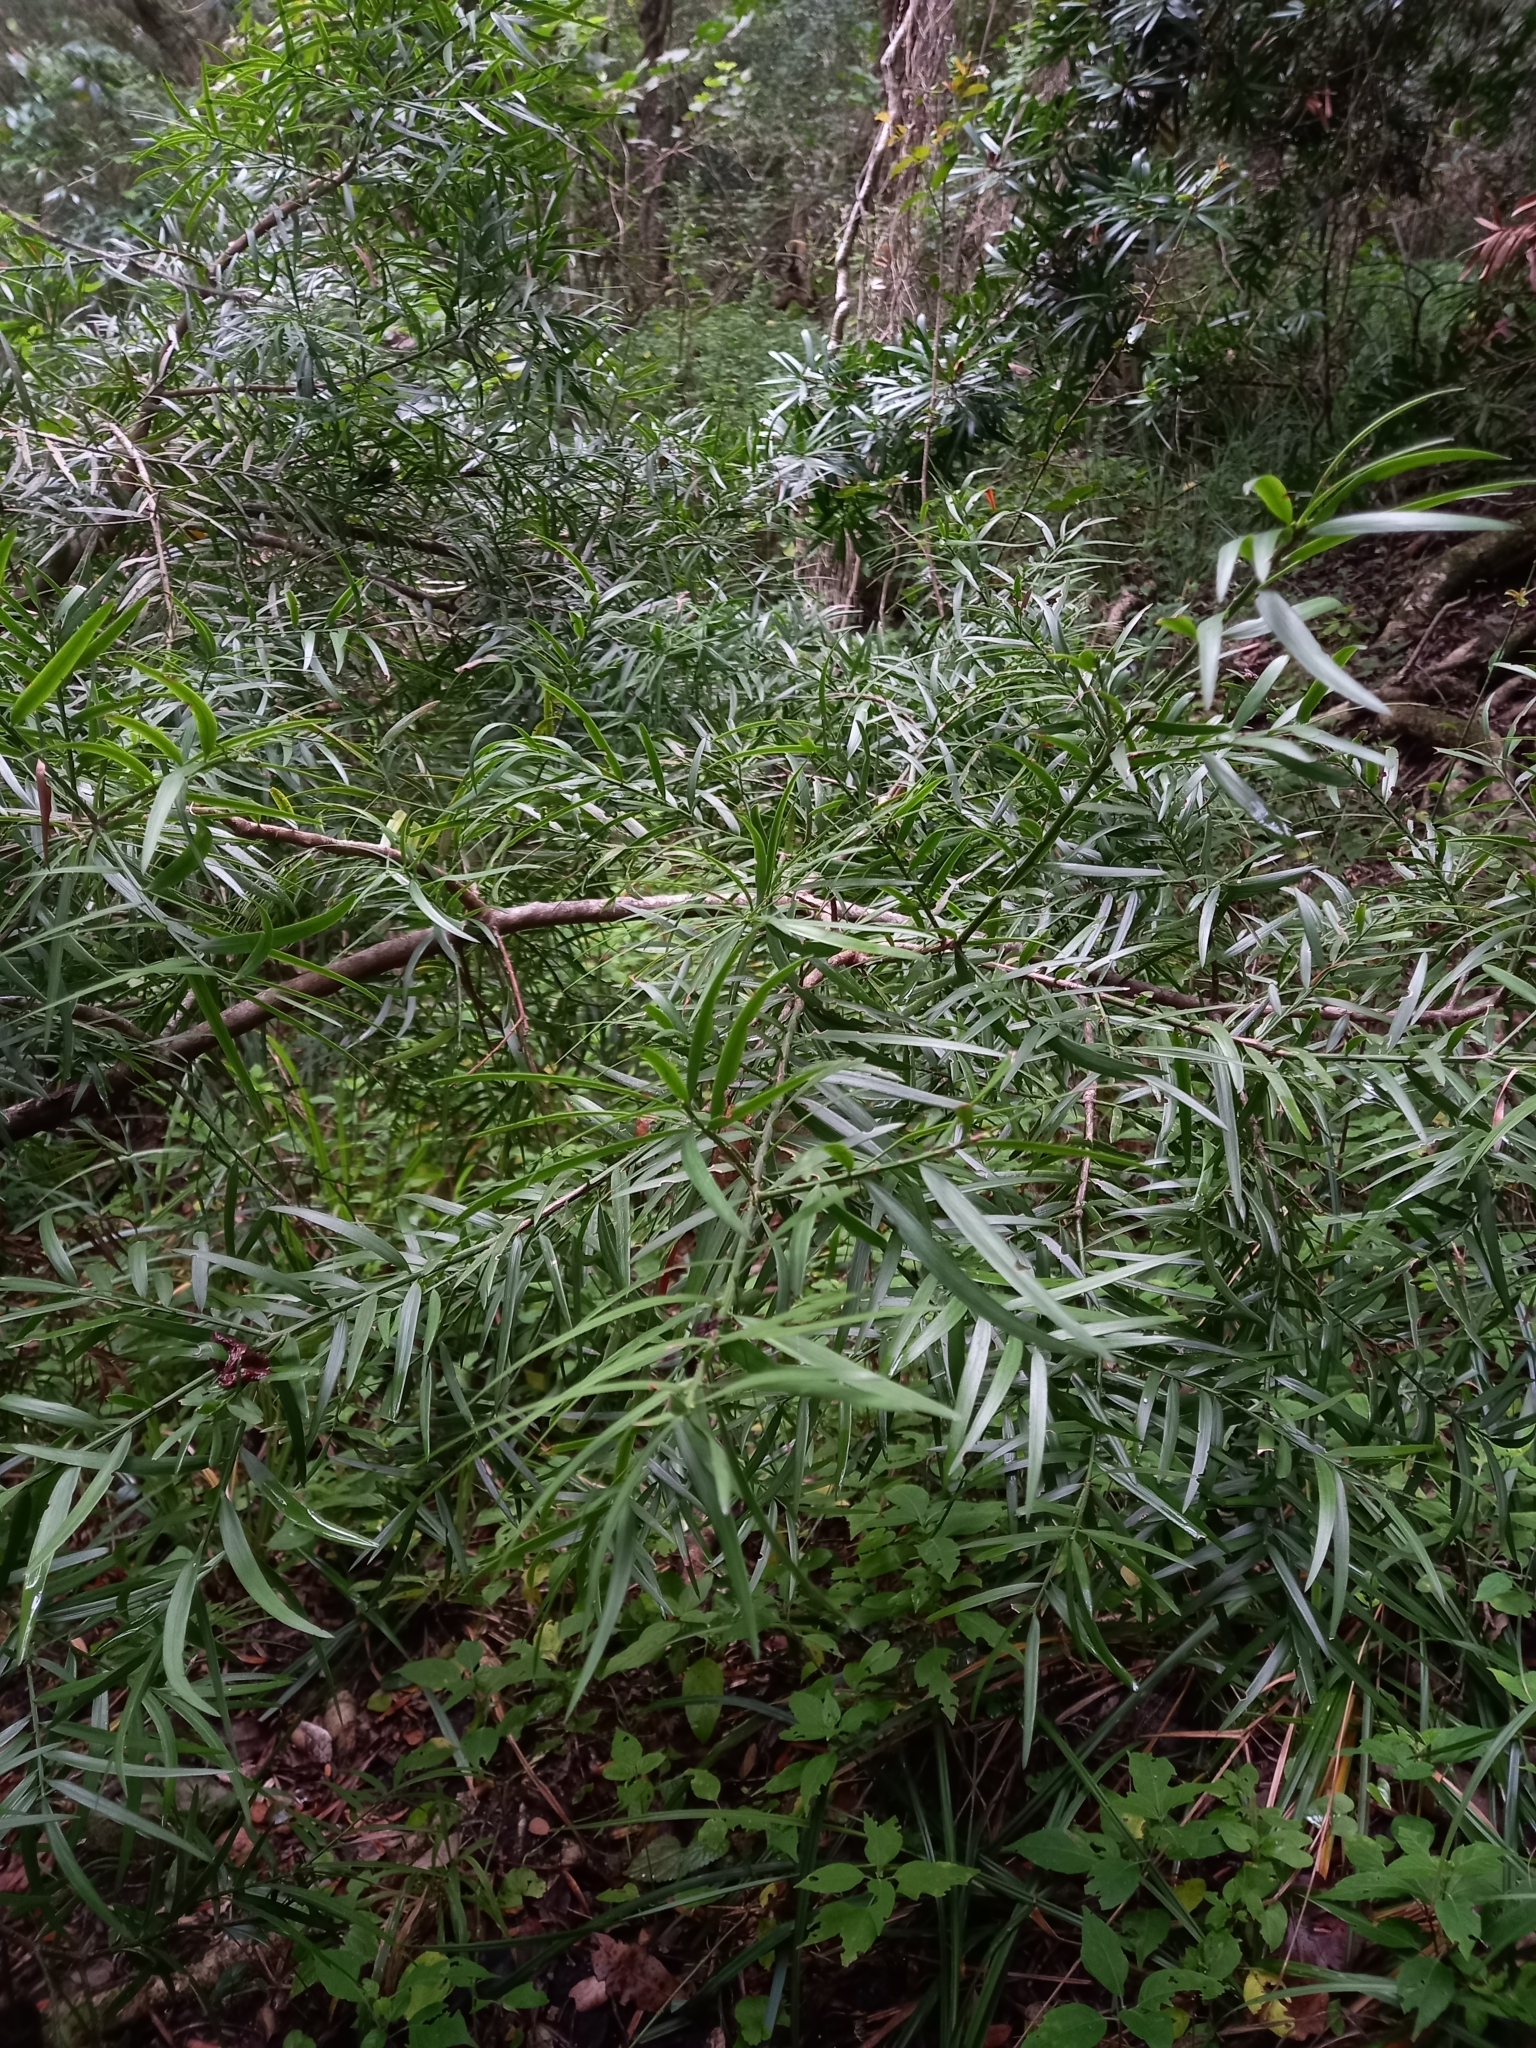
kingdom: Plantae
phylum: Tracheophyta
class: Pinopsida
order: Pinales
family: Podocarpaceae
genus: Afrocarpus
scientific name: Afrocarpus falcatus
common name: Bastard yellowwood
